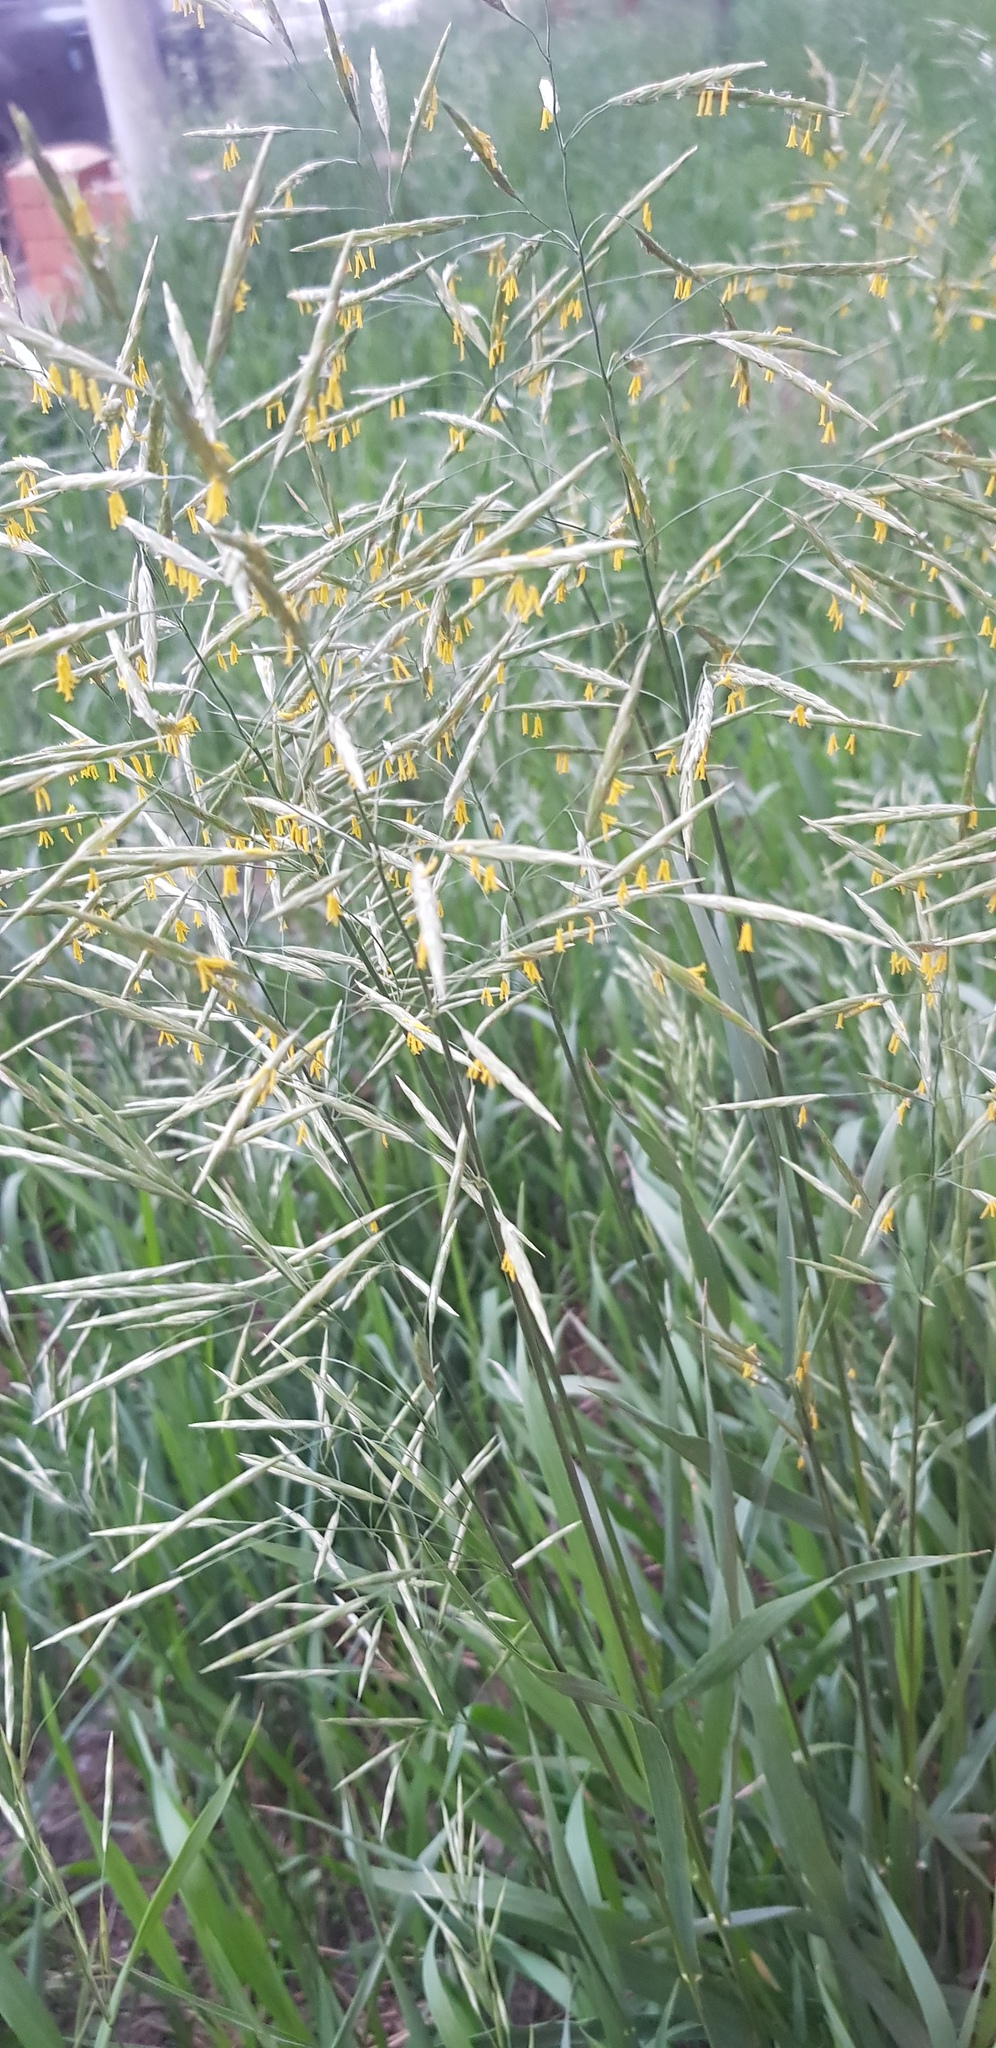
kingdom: Plantae
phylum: Tracheophyta
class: Liliopsida
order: Poales
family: Poaceae
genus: Bromus
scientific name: Bromus inermis
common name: Smooth brome
